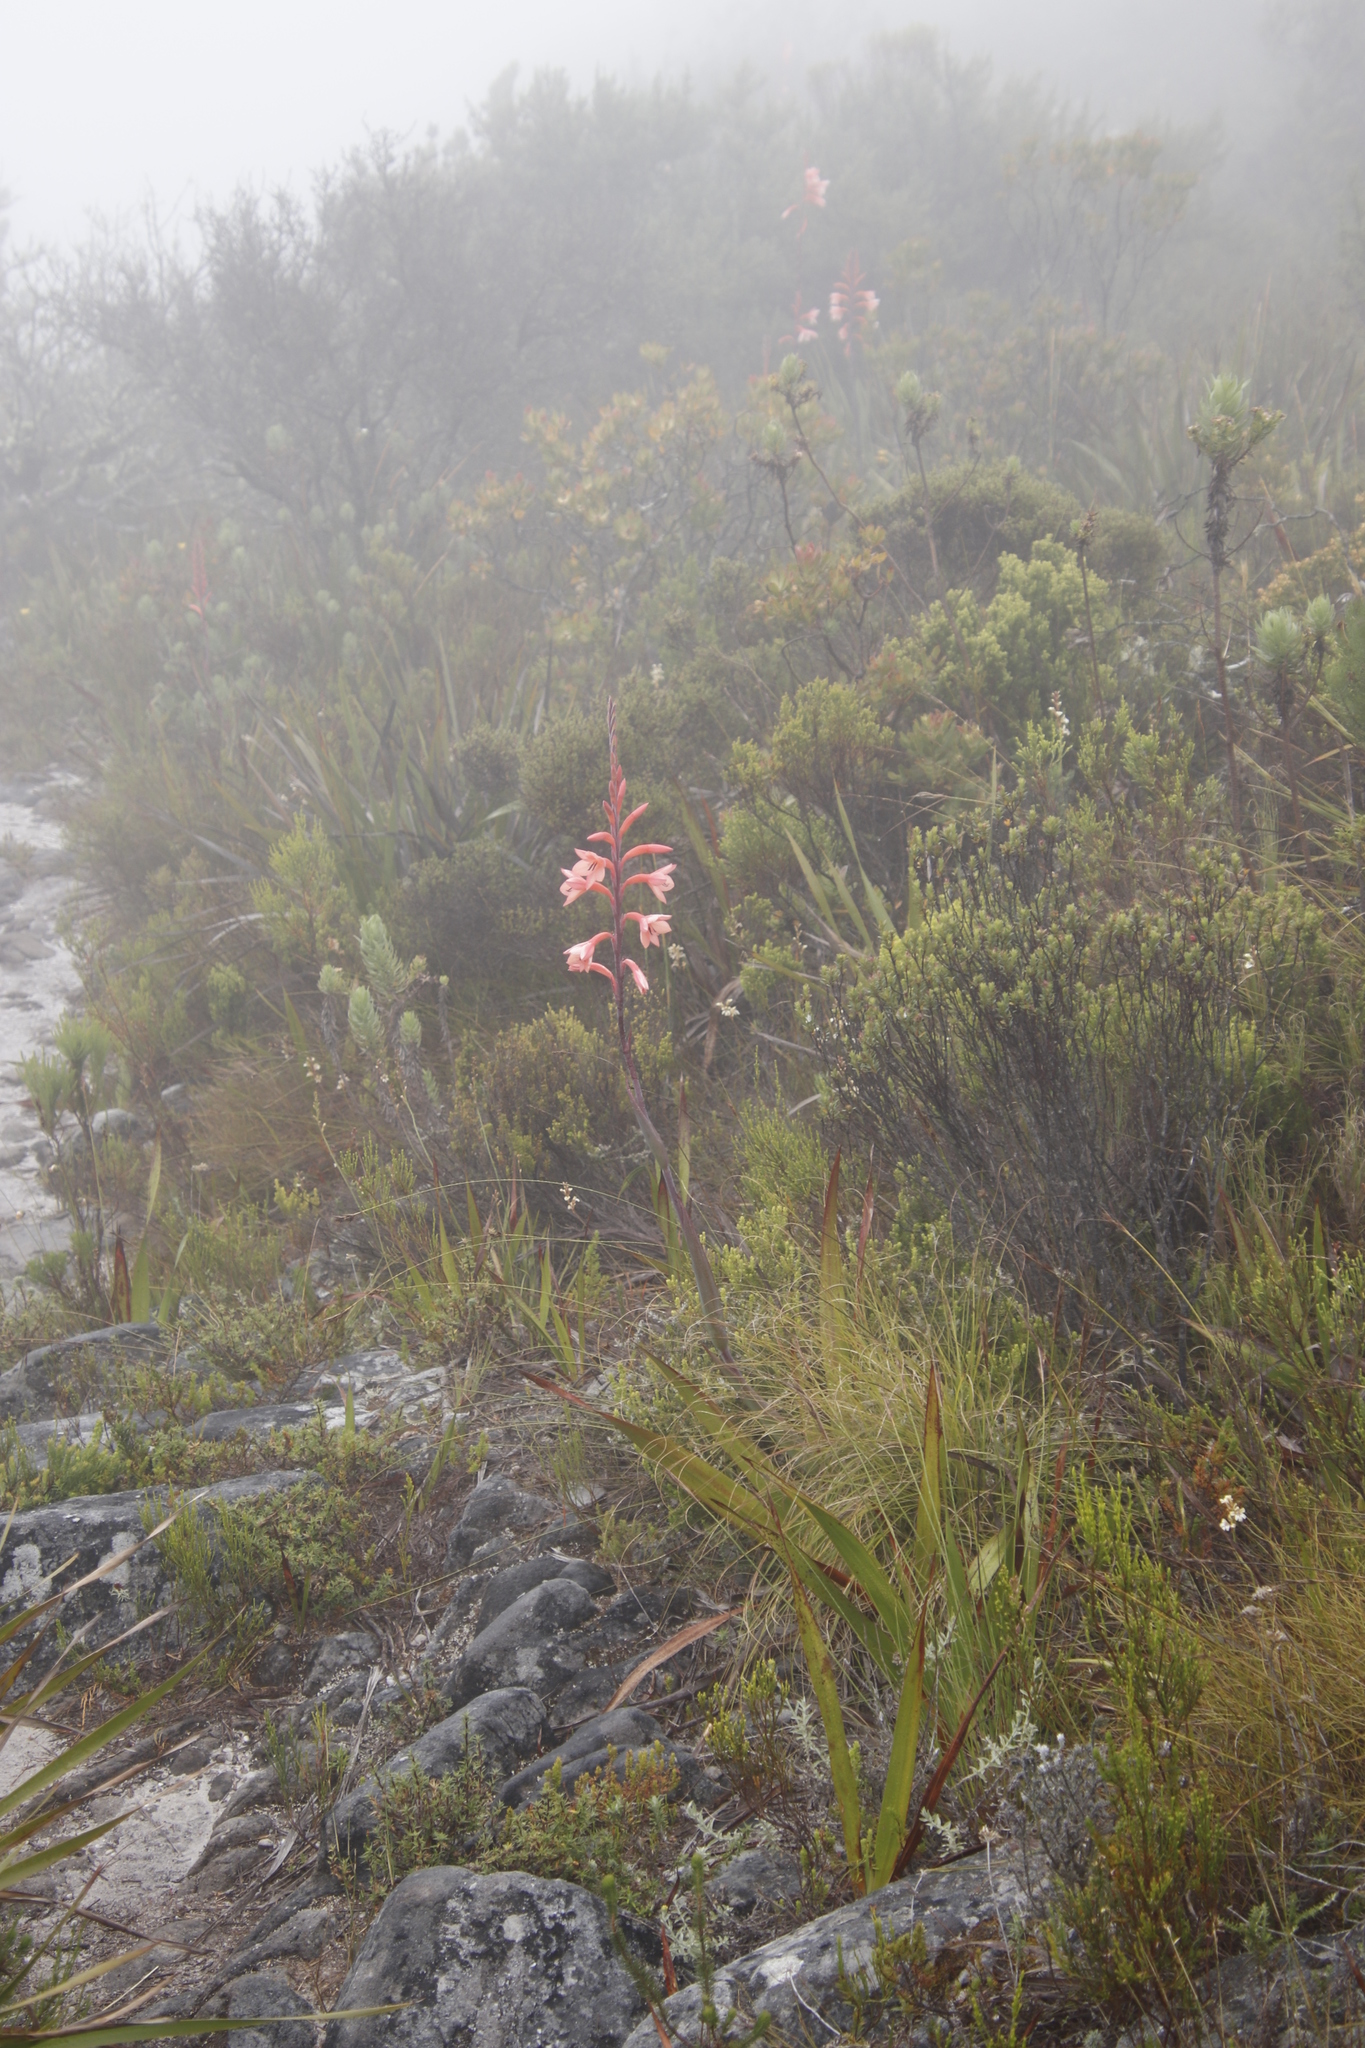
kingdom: Plantae
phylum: Tracheophyta
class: Liliopsida
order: Asparagales
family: Iridaceae
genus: Watsonia
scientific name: Watsonia tabularis
